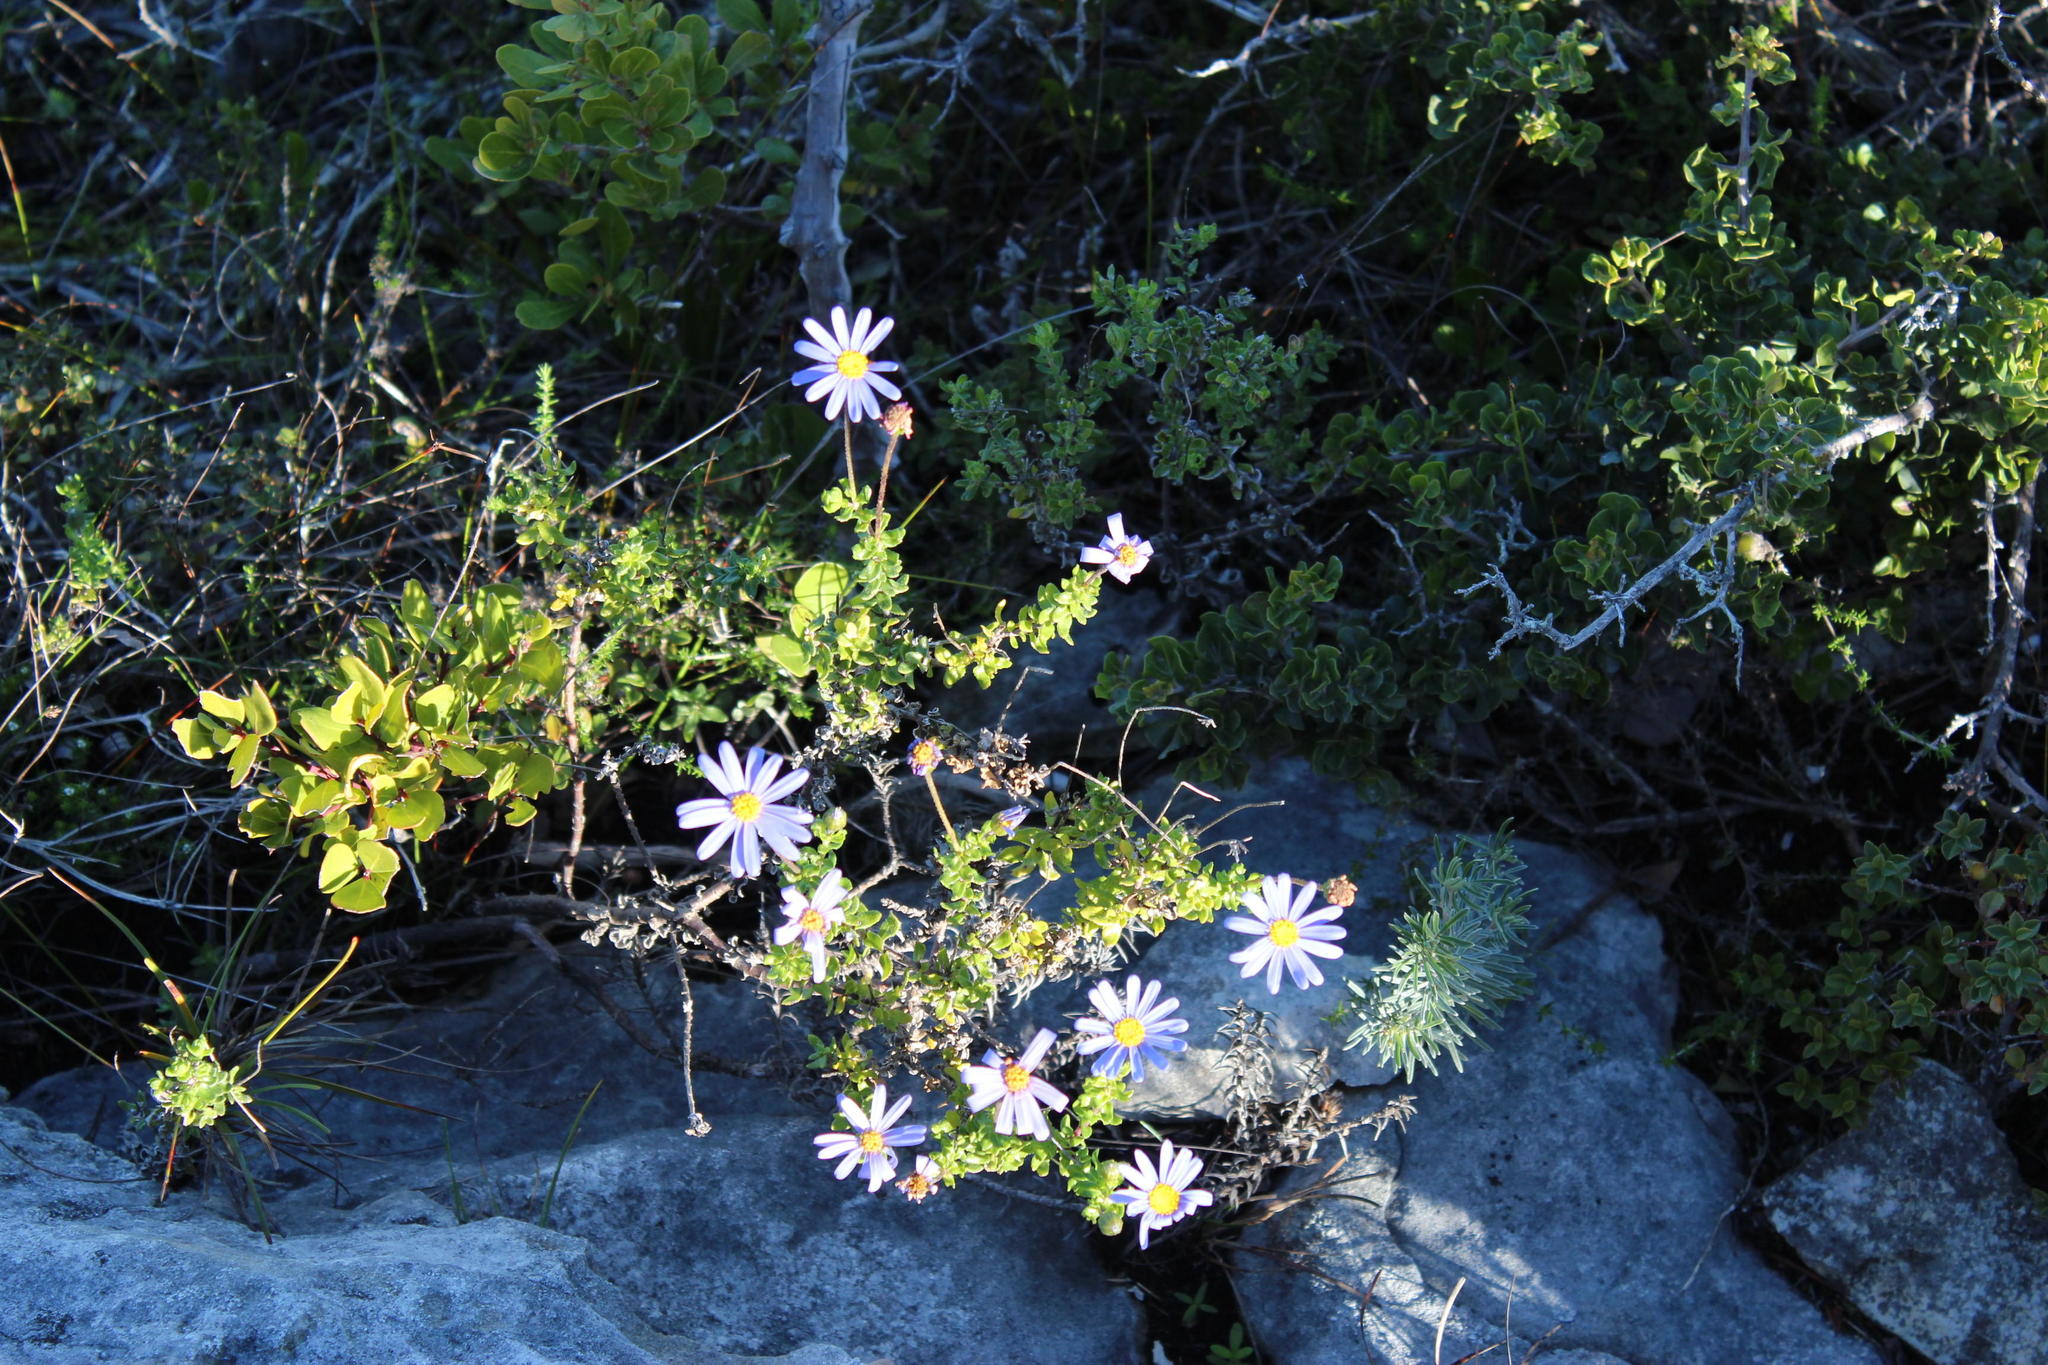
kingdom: Plantae
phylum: Tracheophyta
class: Magnoliopsida
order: Asterales
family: Asteraceae
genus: Felicia
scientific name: Felicia aethiopica
